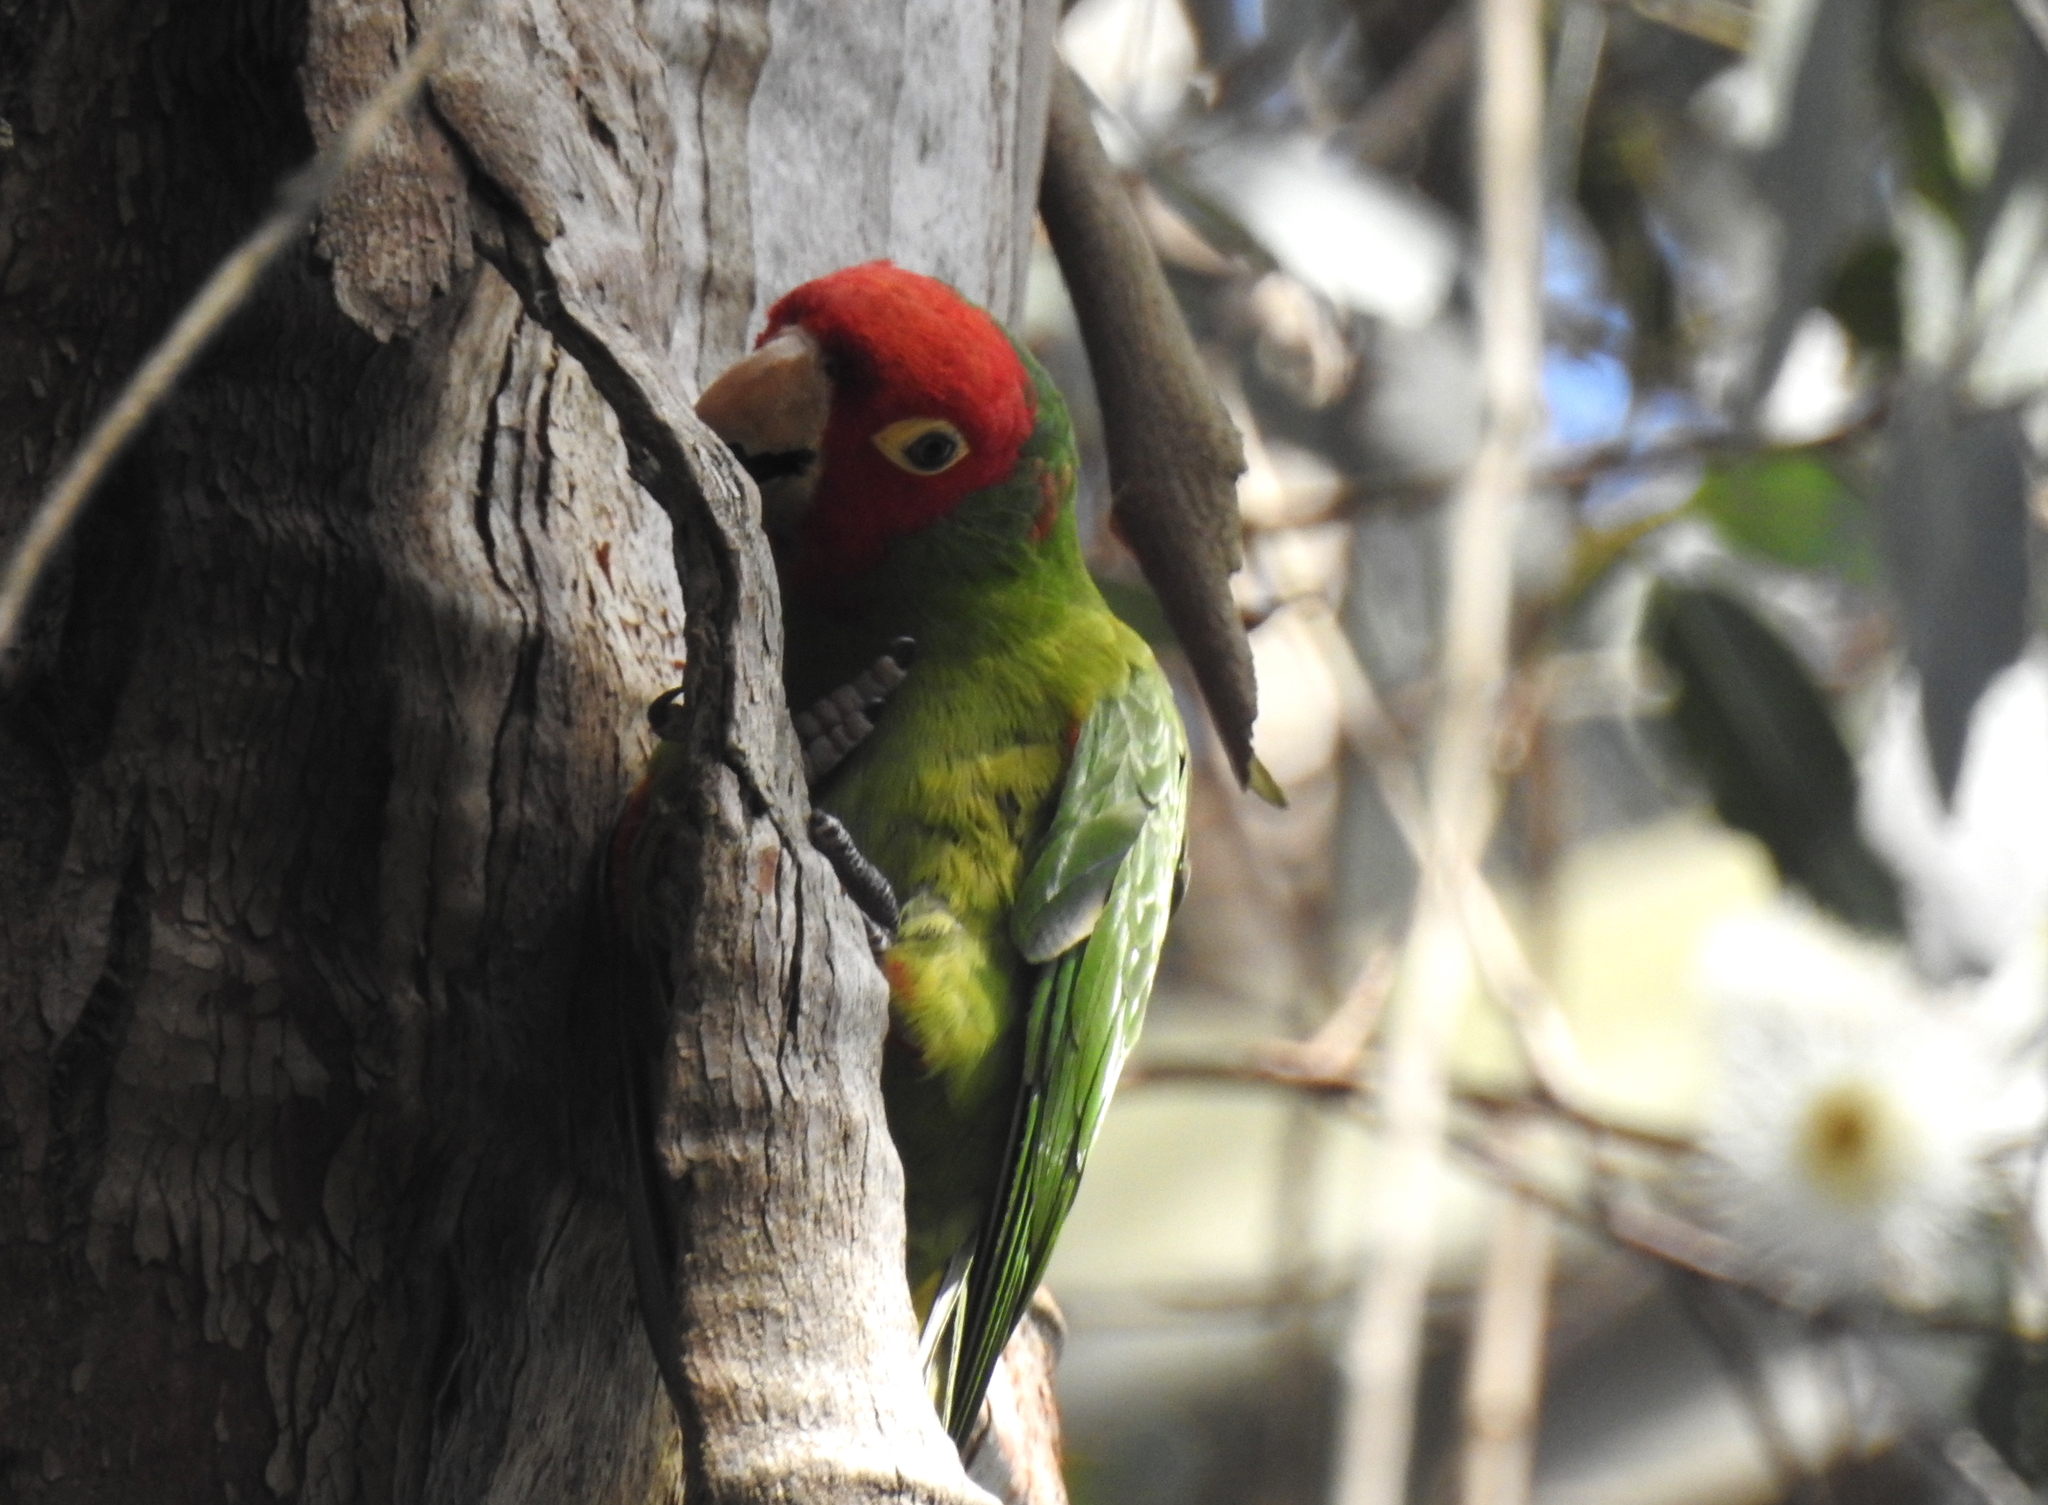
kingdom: Animalia
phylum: Chordata
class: Aves
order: Psittaciformes
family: Psittacidae
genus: Aratinga
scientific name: Aratinga erythrogenys
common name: Red-masked parakeet
